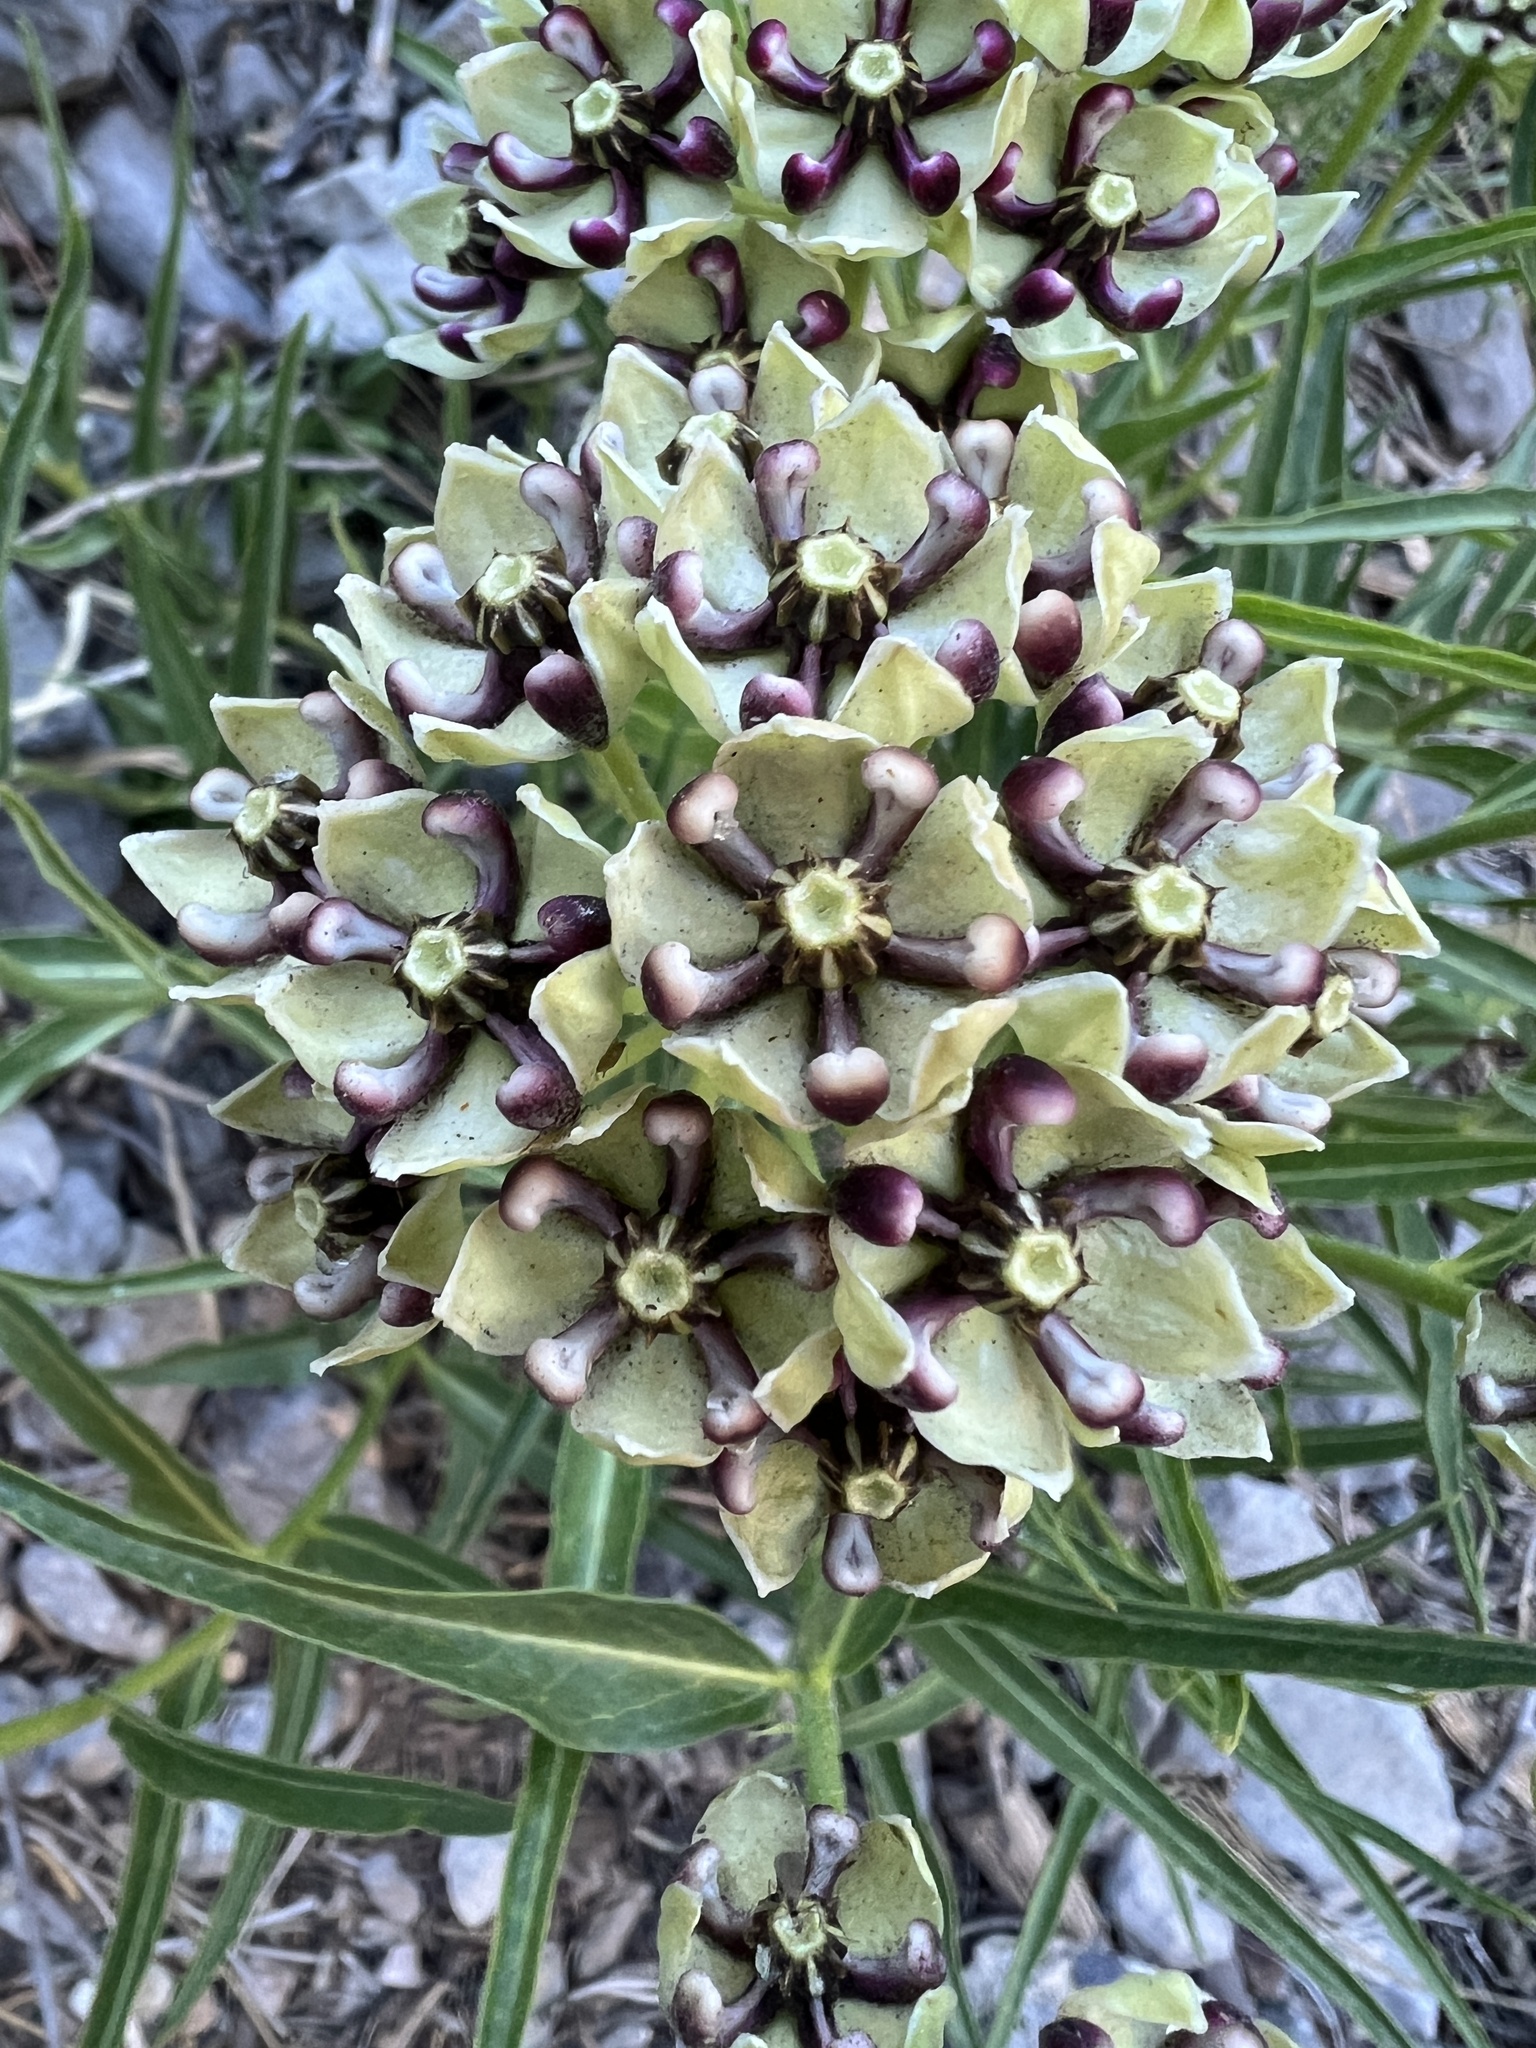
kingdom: Plantae
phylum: Tracheophyta
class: Magnoliopsida
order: Gentianales
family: Apocynaceae
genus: Asclepias
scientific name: Asclepias asperula
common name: Antelope horns
